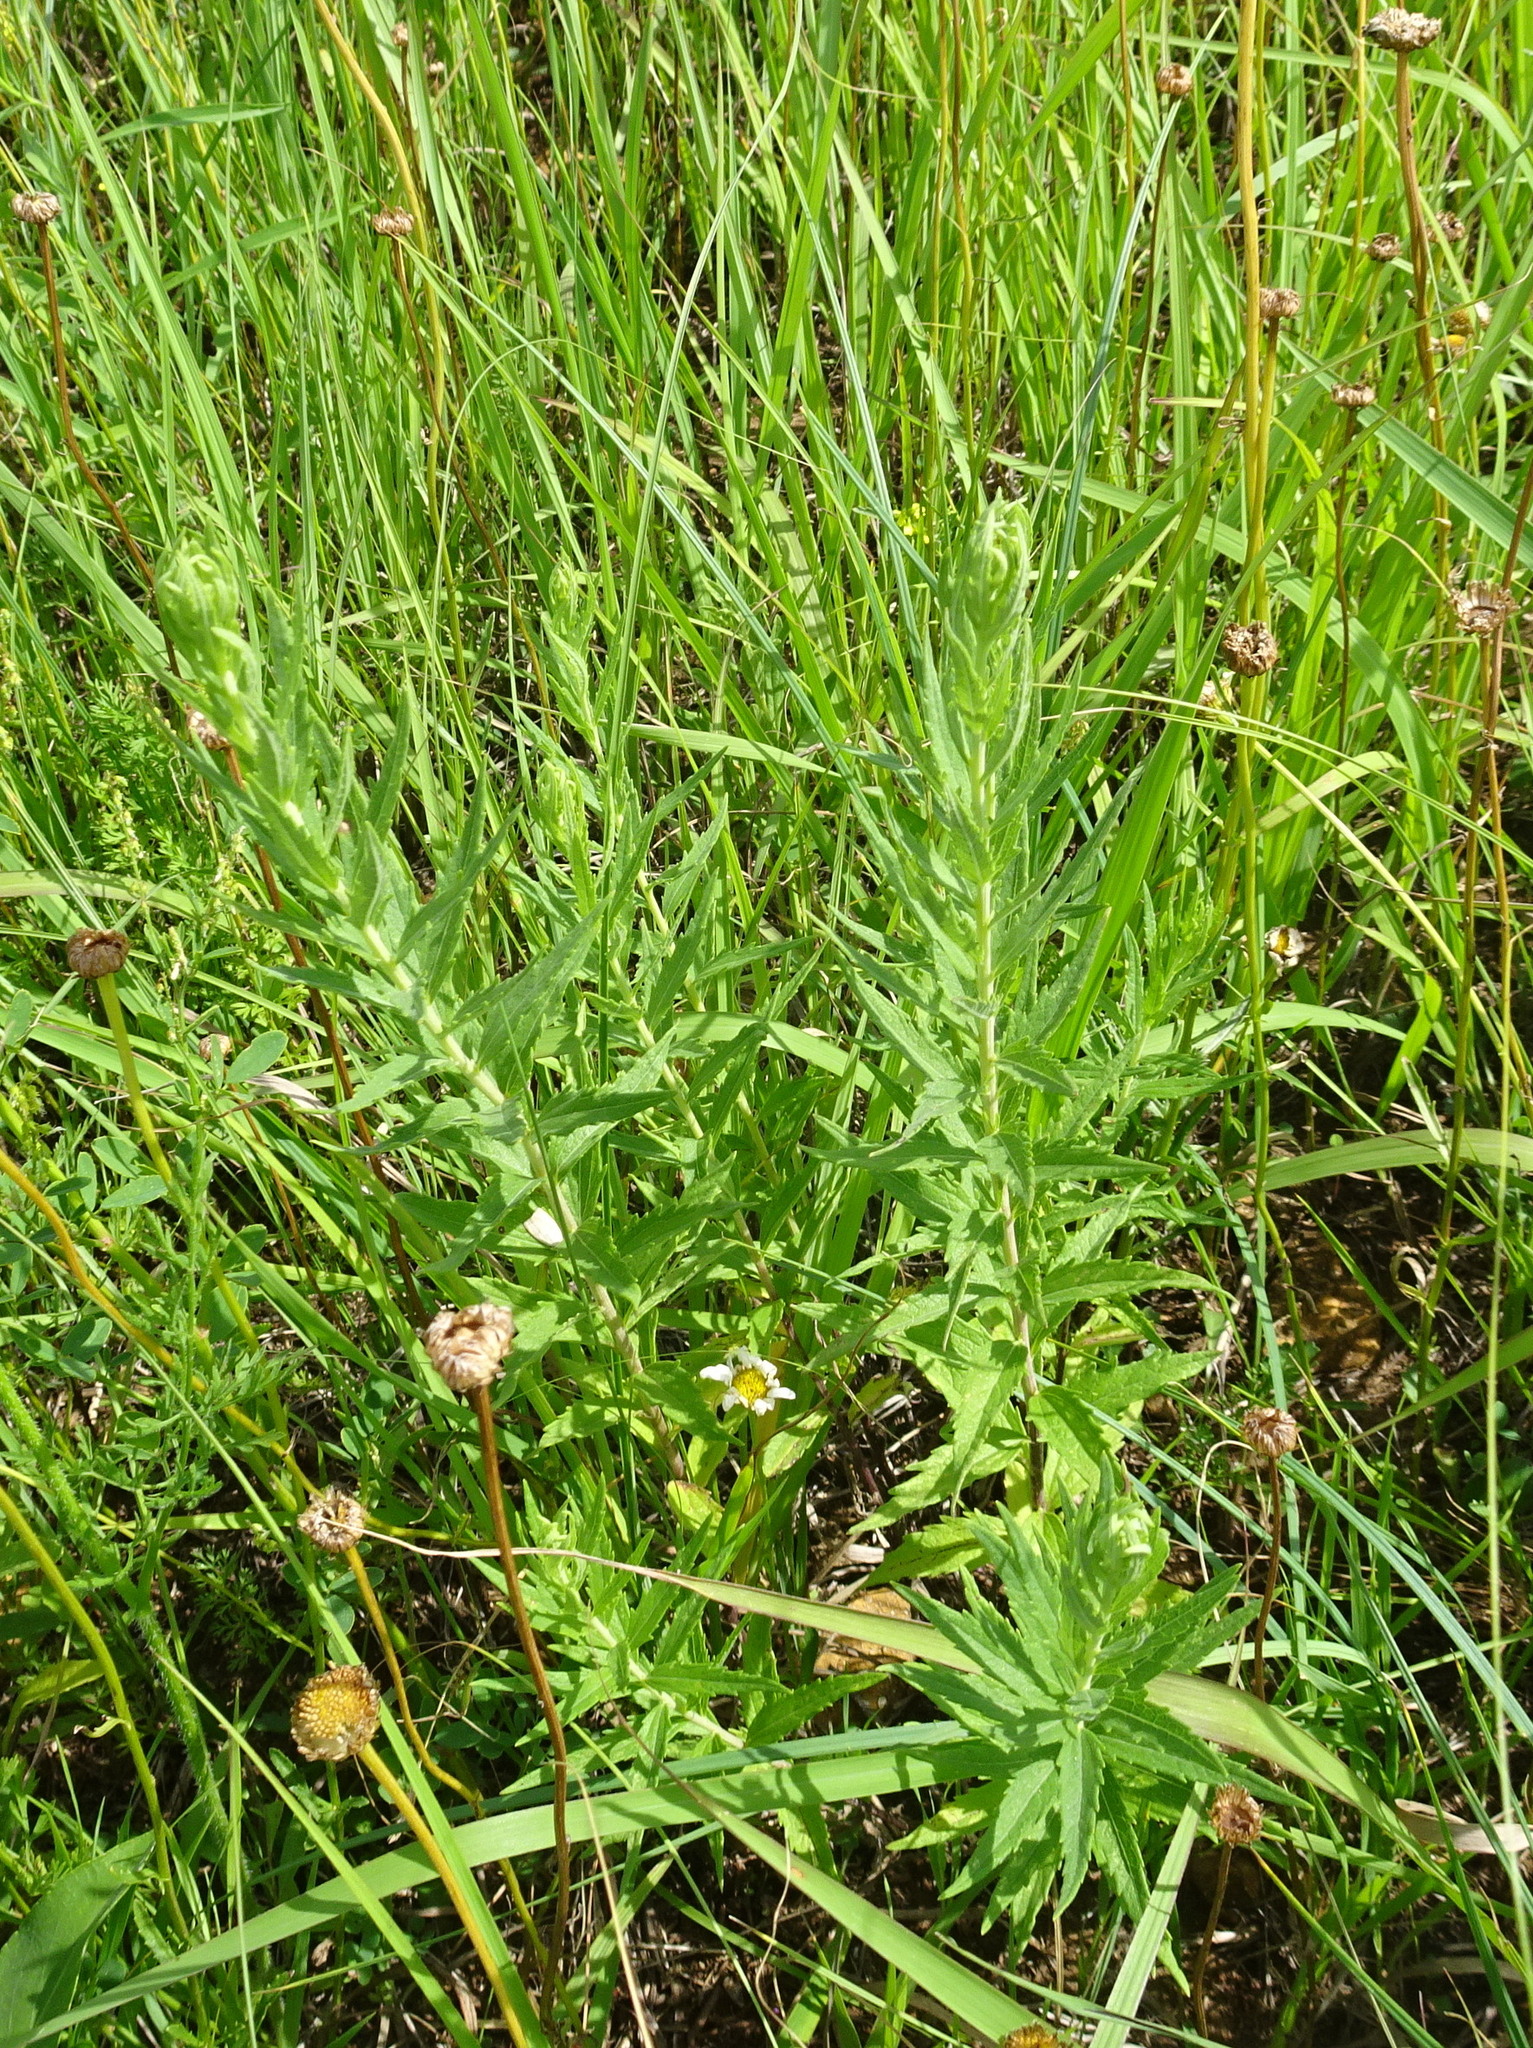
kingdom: Plantae
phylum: Tracheophyta
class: Magnoliopsida
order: Asterales
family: Asteraceae
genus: Brickellia
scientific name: Brickellia eupatorioides
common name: False boneset
